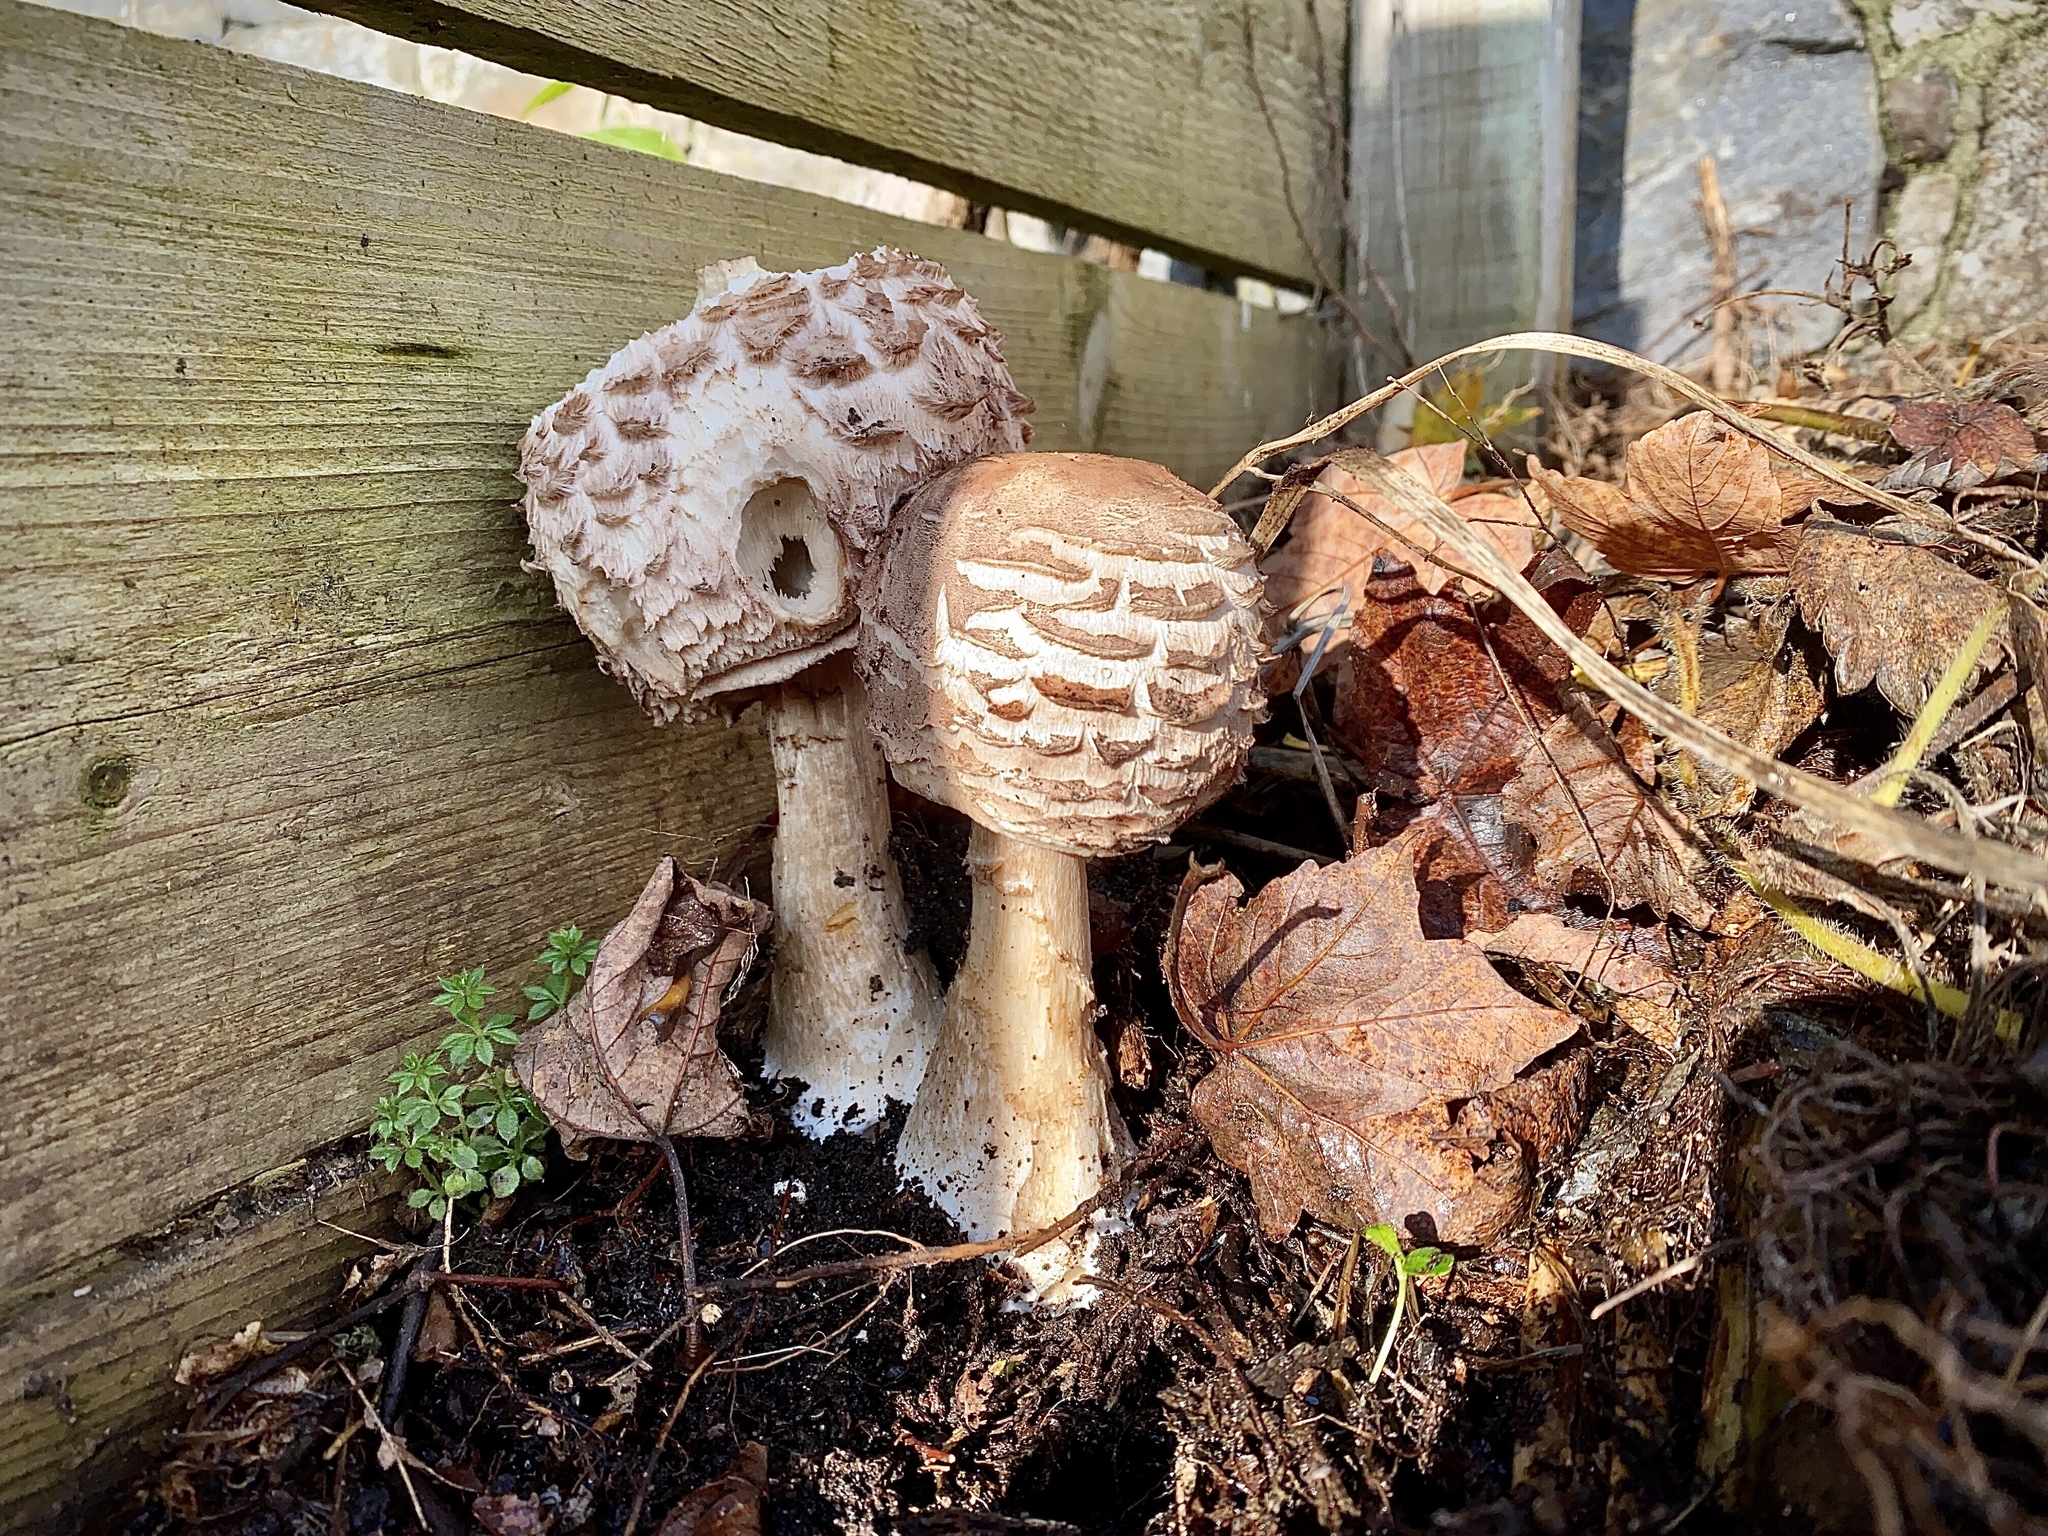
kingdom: Fungi
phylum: Basidiomycota
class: Agaricomycetes
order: Agaricales
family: Agaricaceae
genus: Chlorophyllum
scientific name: Chlorophyllum rhacodes
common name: Shaggy parasol
